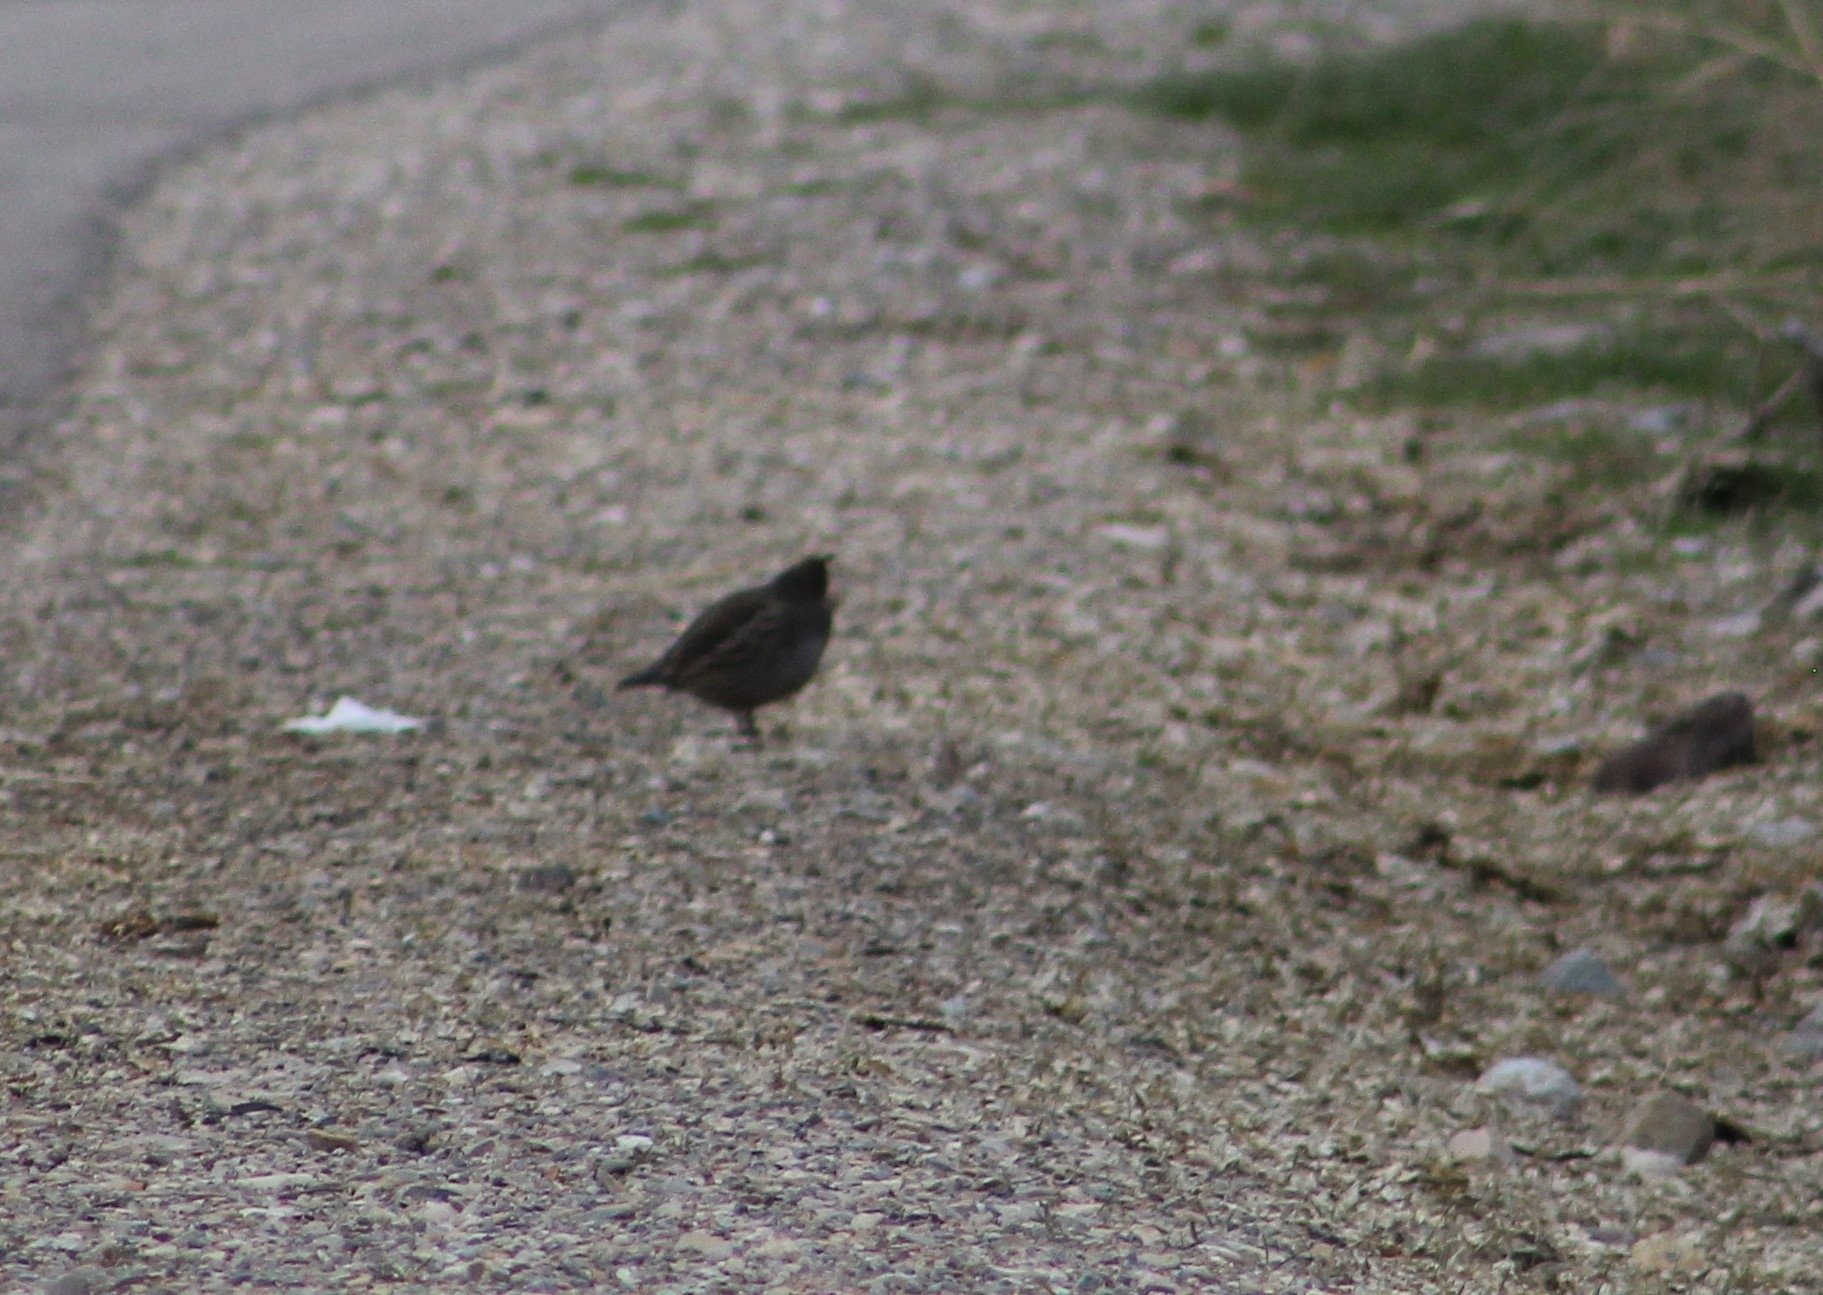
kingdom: Animalia
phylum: Chordata
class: Aves
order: Galliformes
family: Odontophoridae
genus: Callipepla
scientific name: Callipepla californica
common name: California quail
